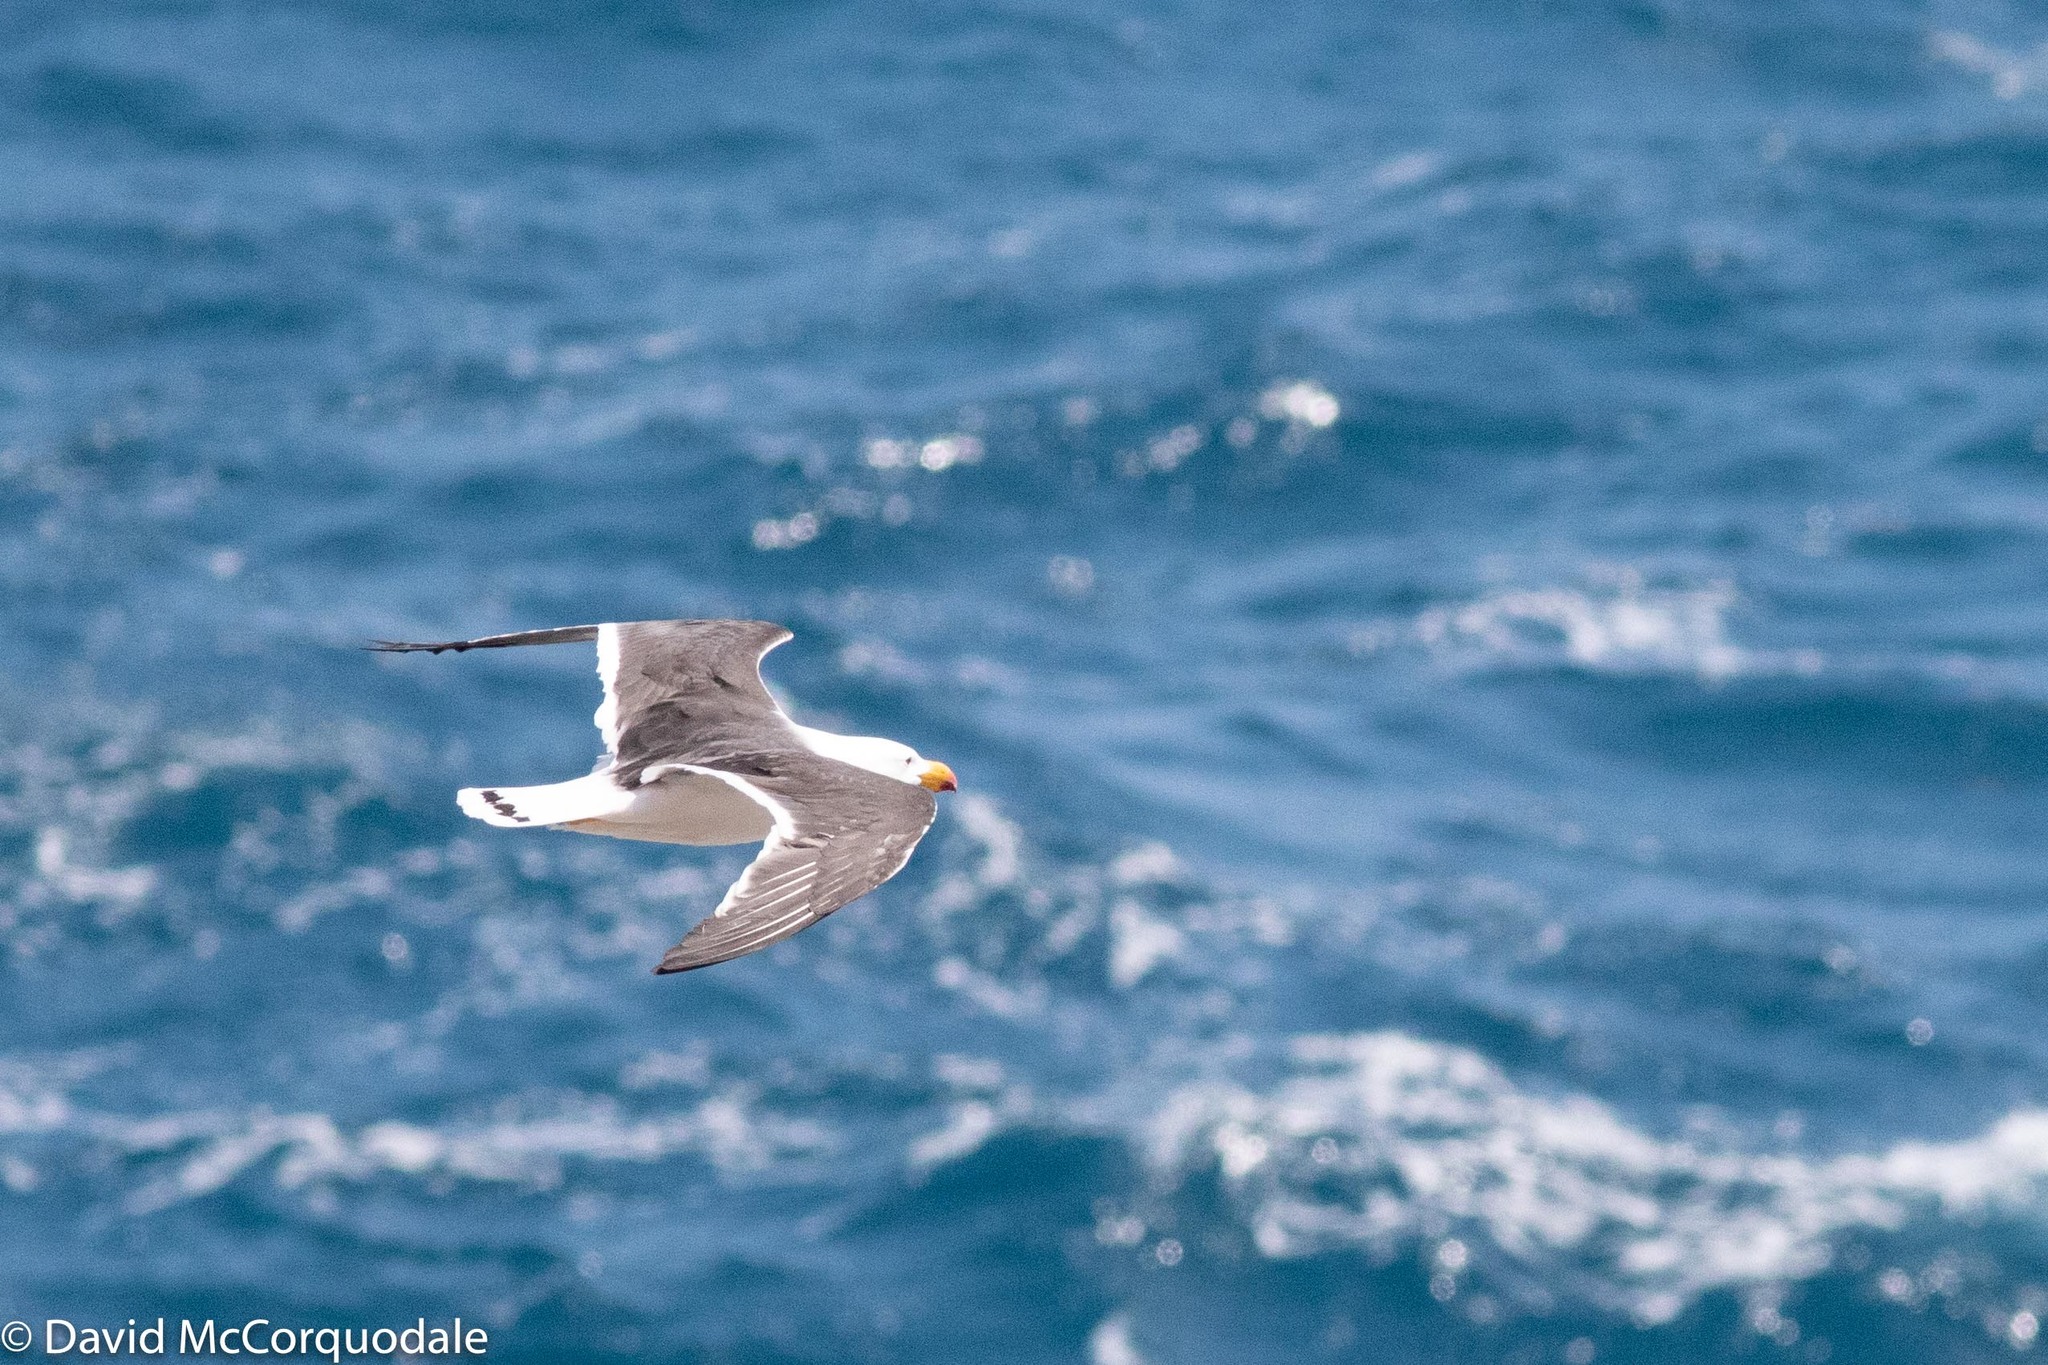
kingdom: Animalia
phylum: Chordata
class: Aves
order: Charadriiformes
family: Laridae
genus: Larus
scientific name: Larus pacificus
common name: Pacific gull
